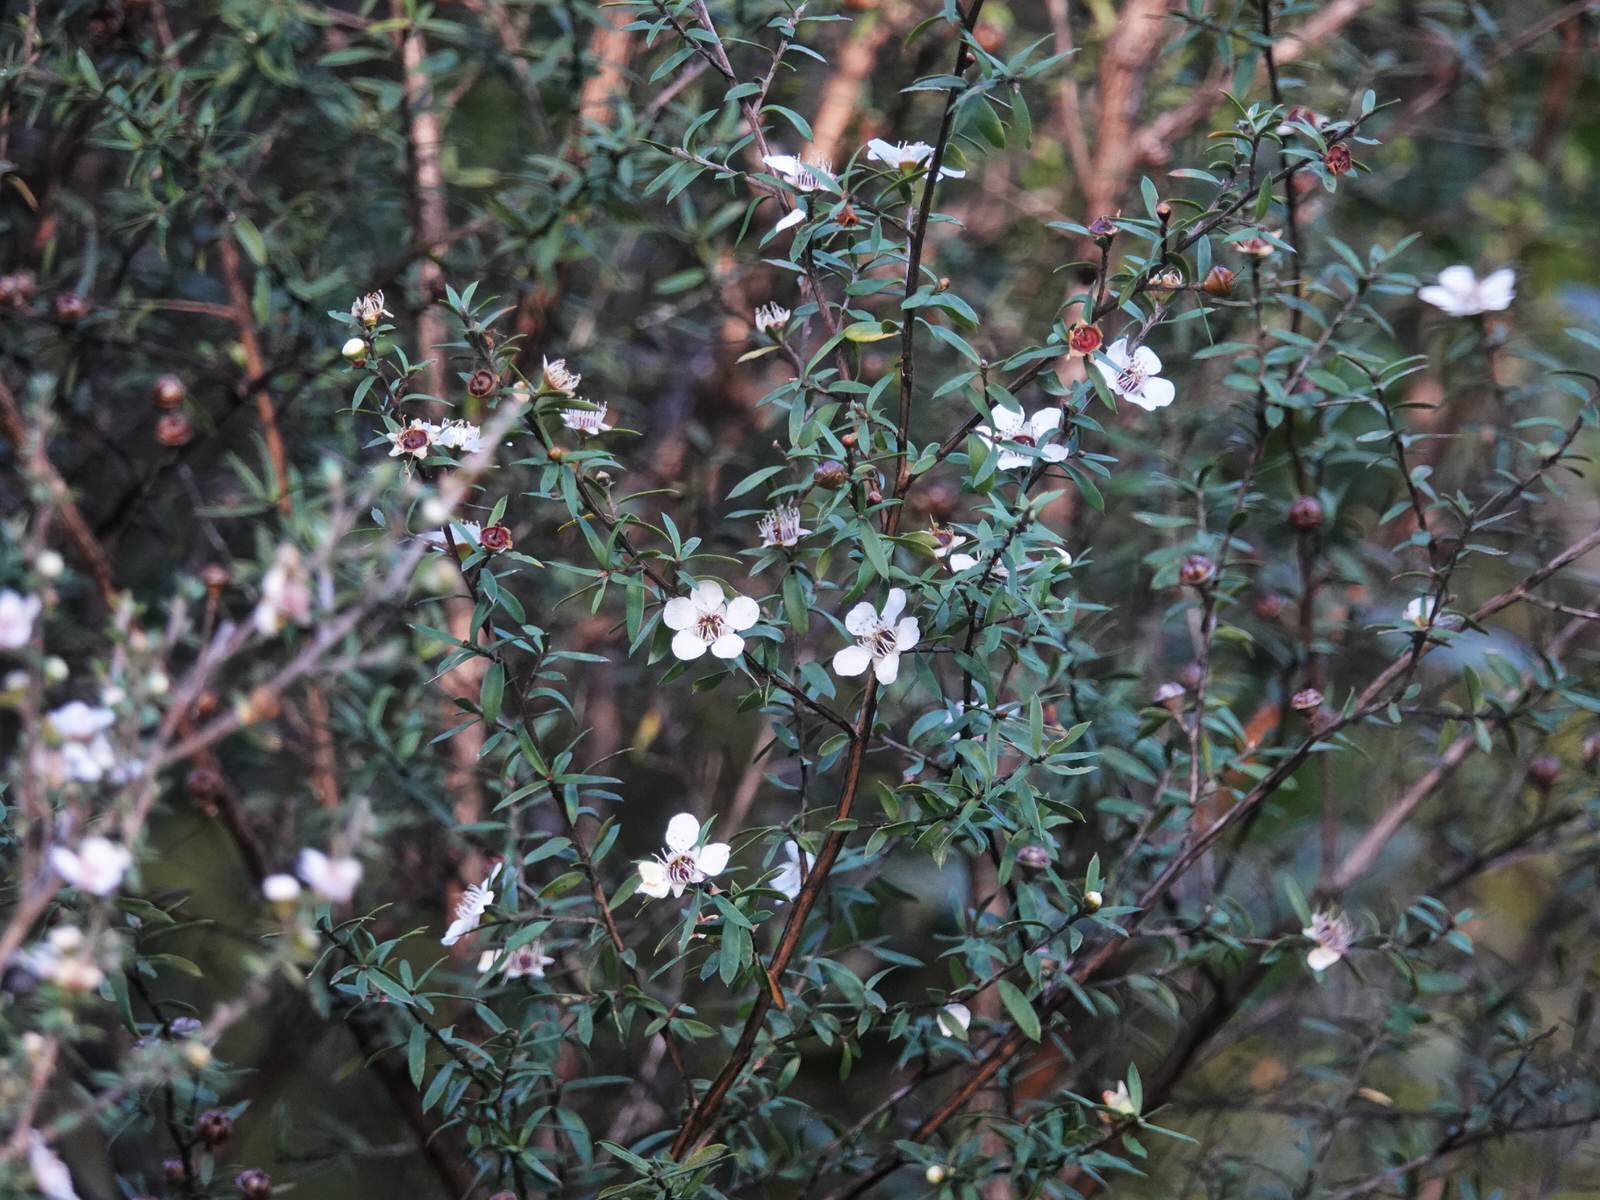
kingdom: Plantae
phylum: Tracheophyta
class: Magnoliopsida
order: Myrtales
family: Myrtaceae
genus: Leptospermum
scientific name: Leptospermum scoparium
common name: Broom tea-tree
